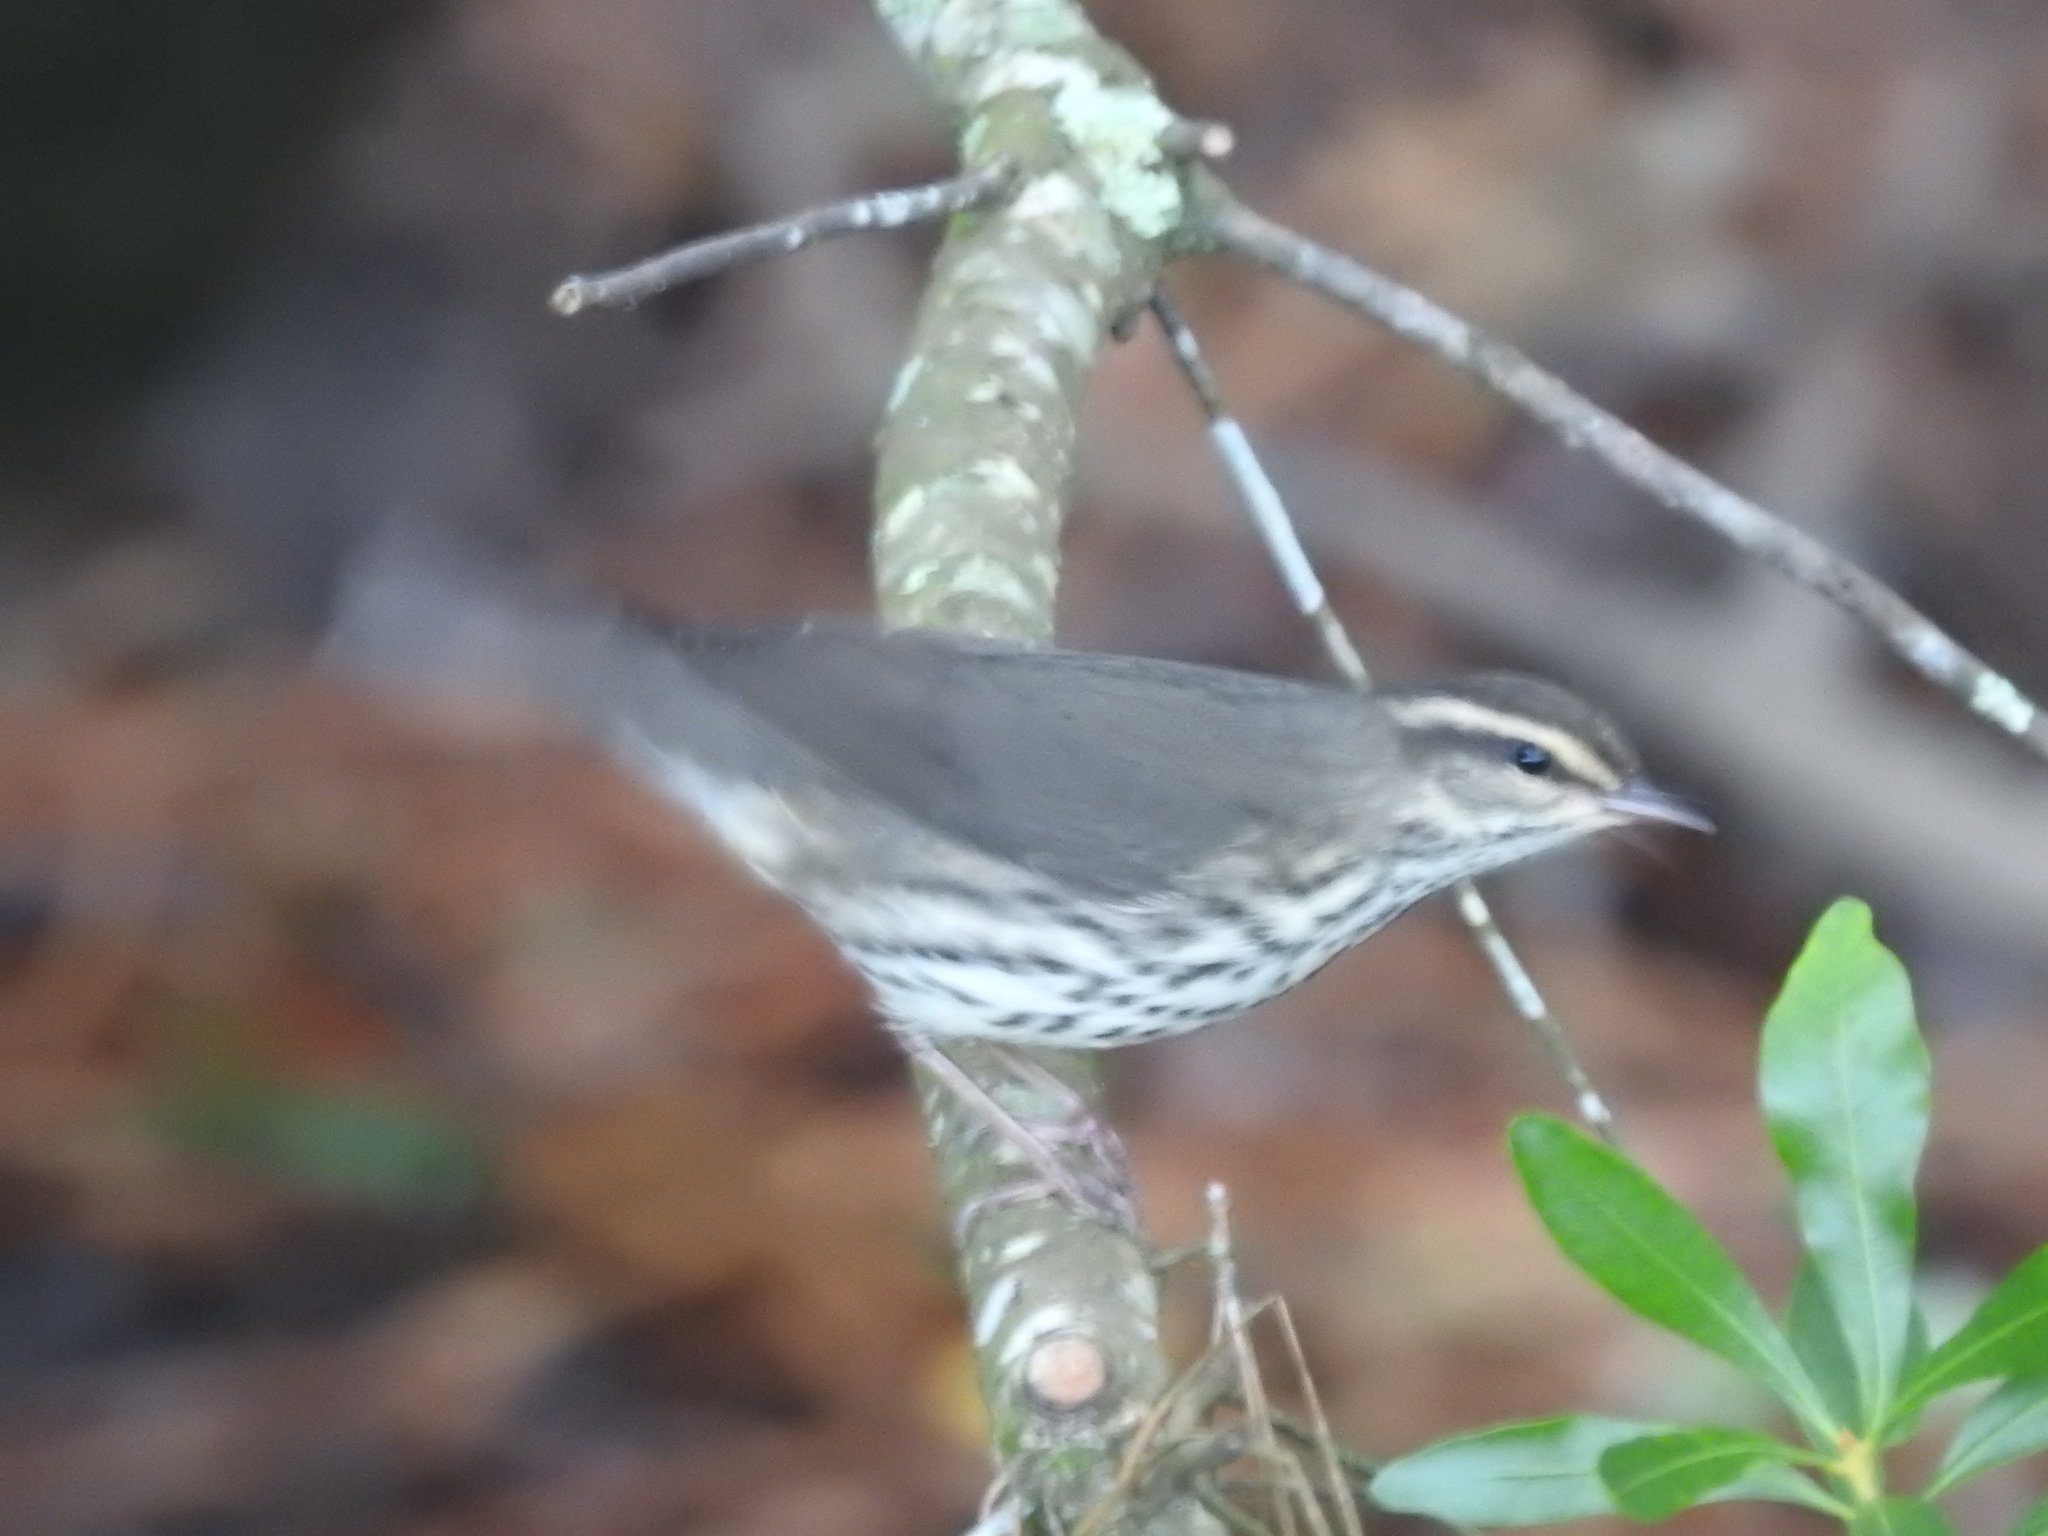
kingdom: Animalia
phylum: Chordata
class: Aves
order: Passeriformes
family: Parulidae
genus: Parkesia
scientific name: Parkesia noveboracensis
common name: Northern waterthrush
